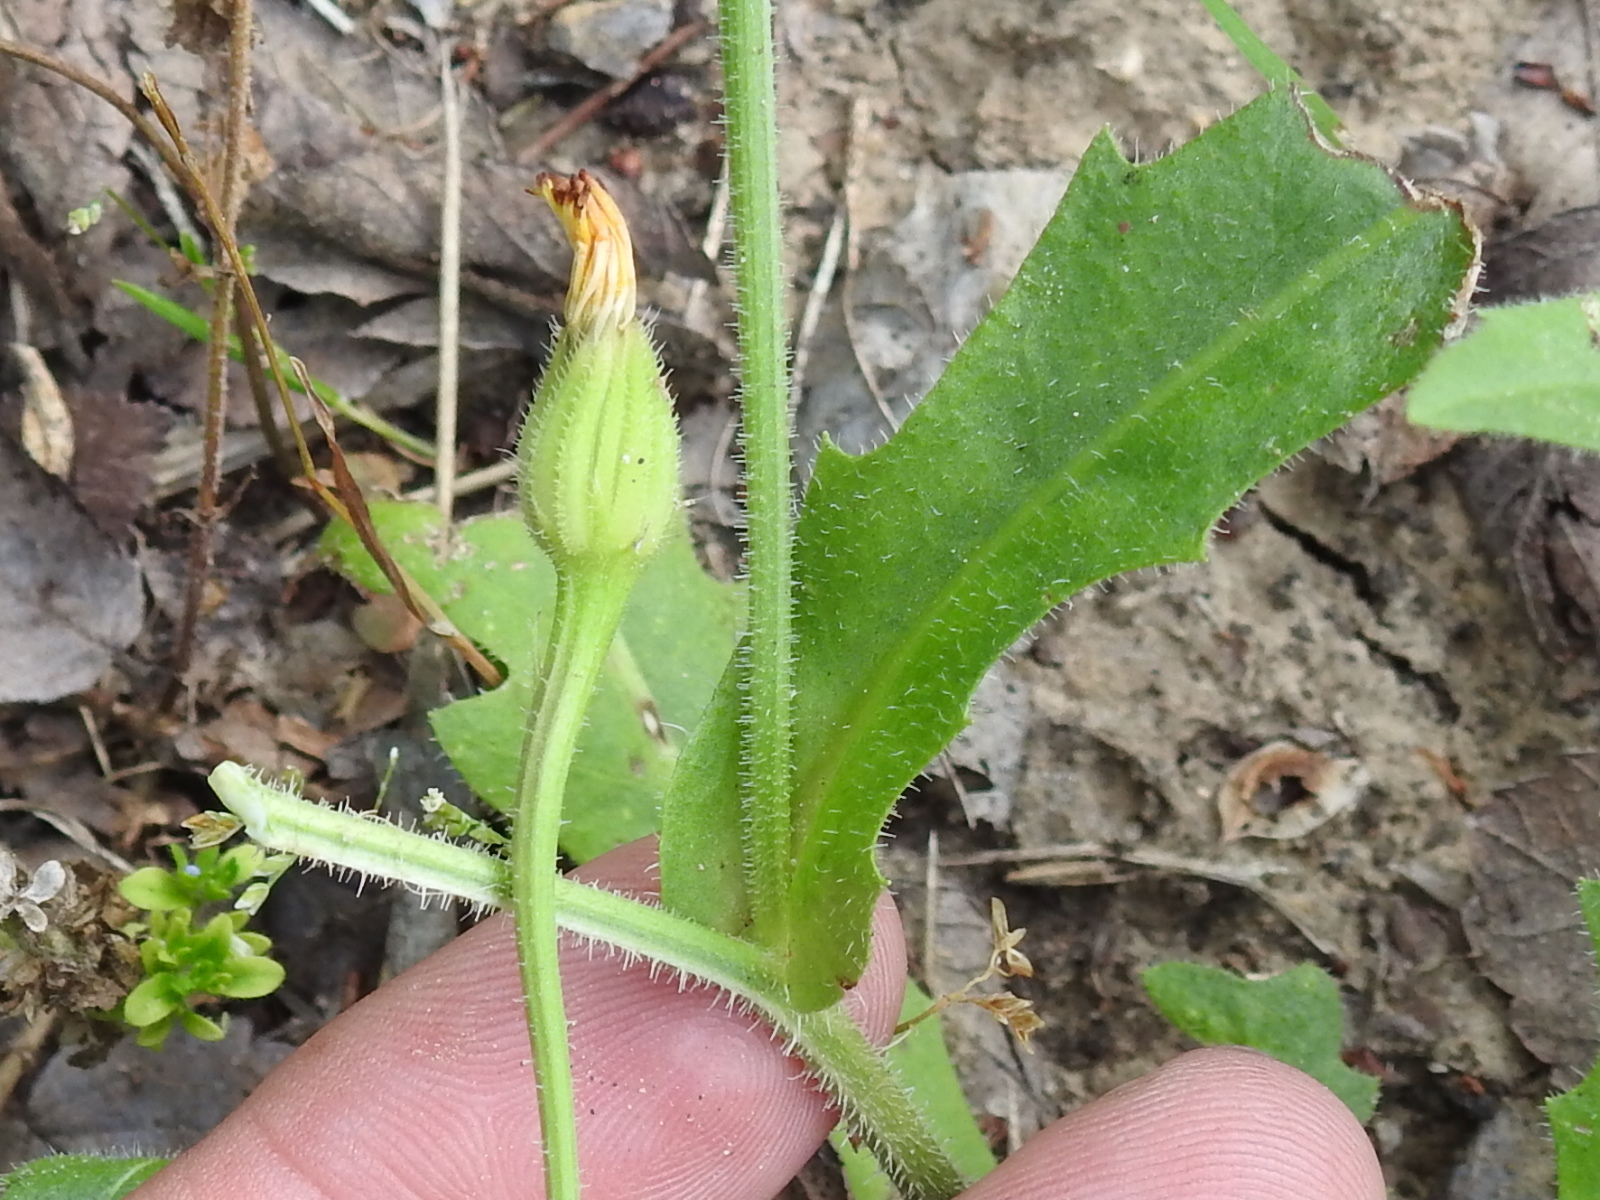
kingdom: Plantae
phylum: Tracheophyta
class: Magnoliopsida
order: Asterales
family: Asteraceae
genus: Hedypnois
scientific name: Hedypnois rhagadioloides
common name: Cretan weed
